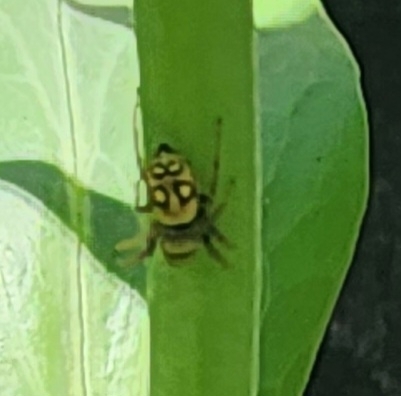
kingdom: Animalia
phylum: Arthropoda
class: Arachnida
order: Araneae
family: Salticidae
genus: Heliophanus
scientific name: Heliophanus apiatus
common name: Sun jumping spider
